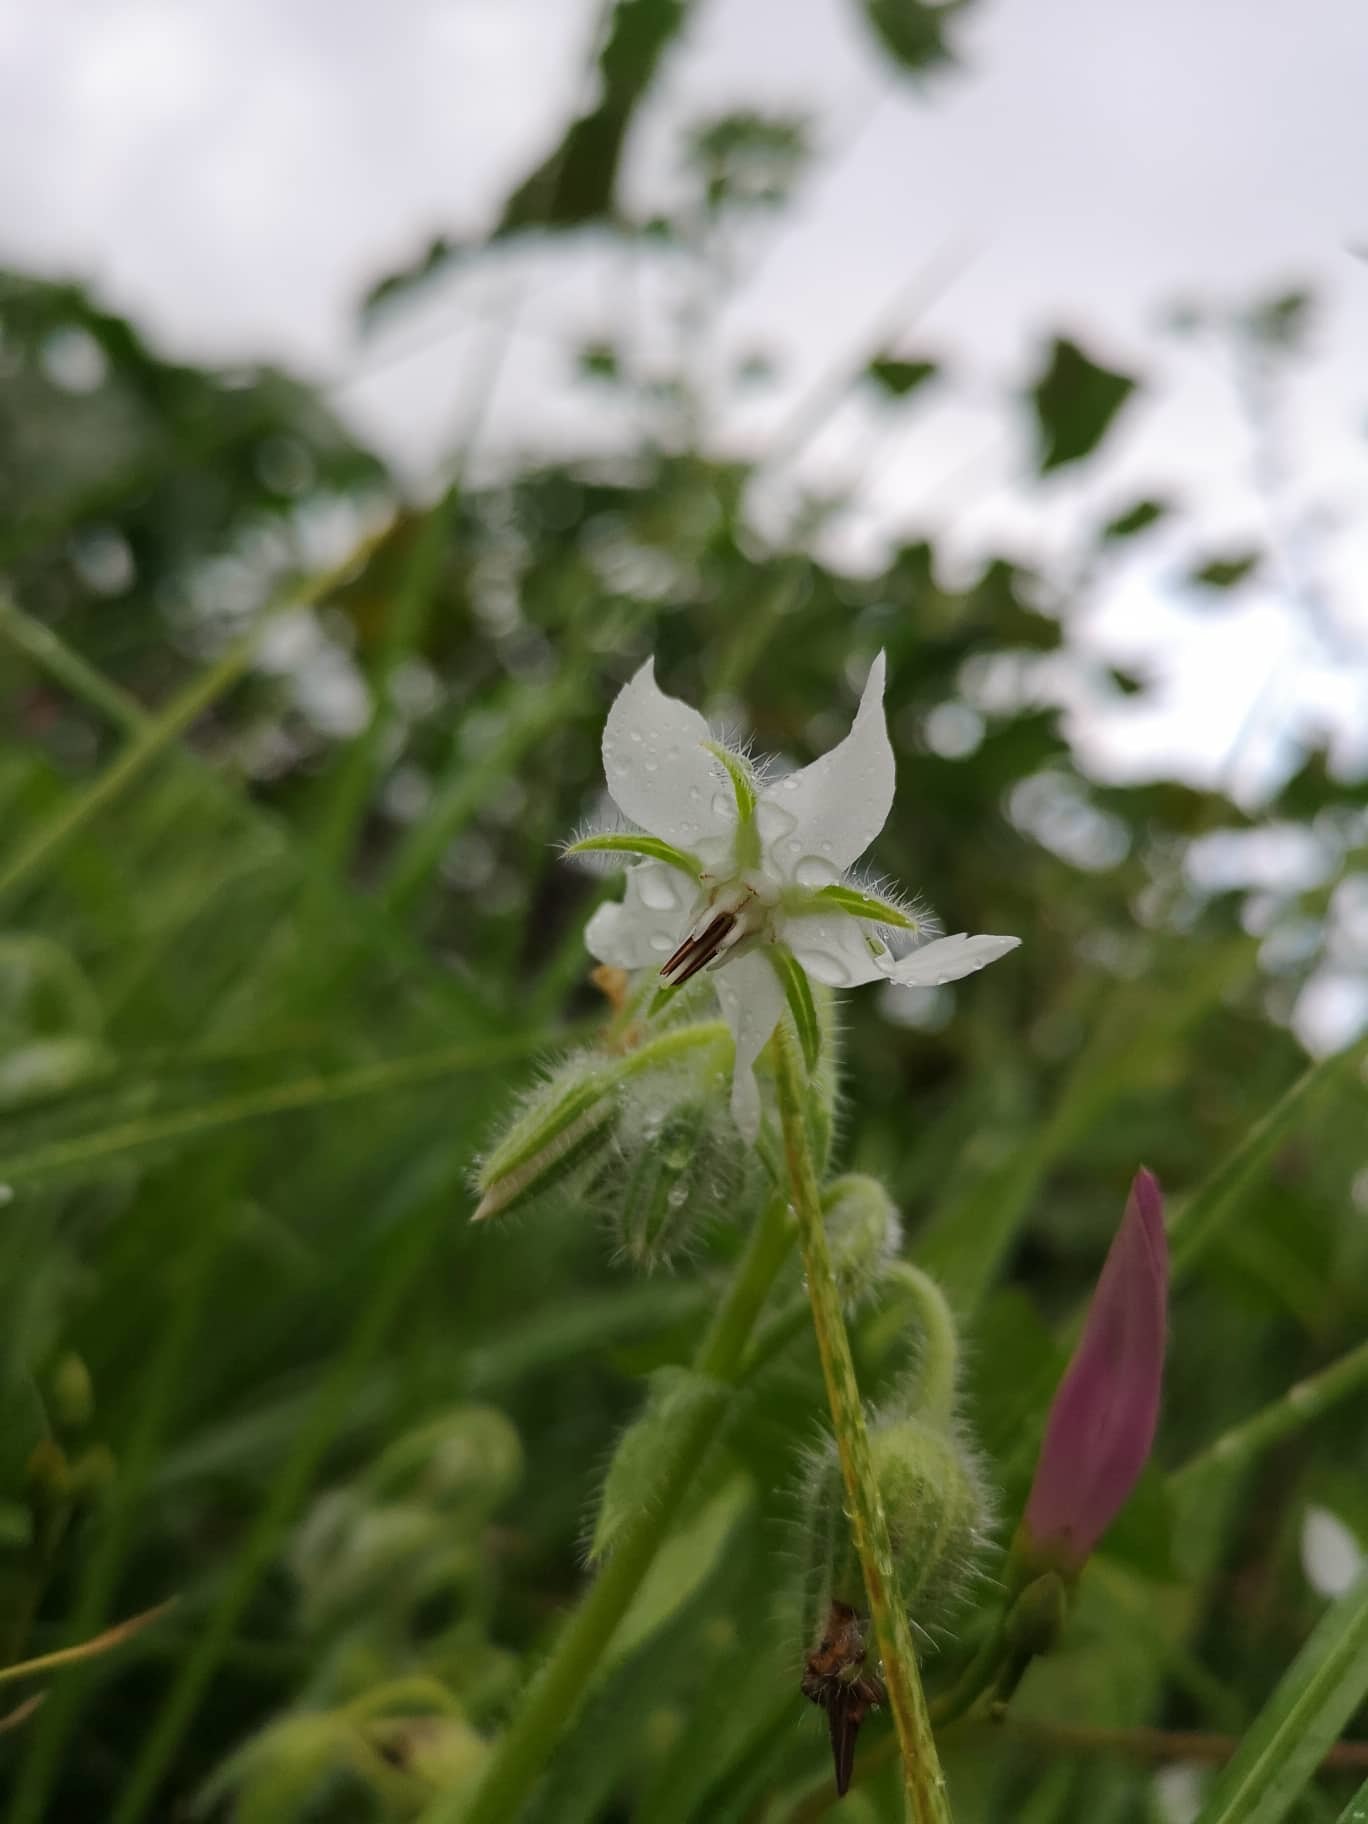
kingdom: Plantae
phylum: Tracheophyta
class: Magnoliopsida
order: Boraginales
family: Boraginaceae
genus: Borago
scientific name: Borago officinalis
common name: Borage
